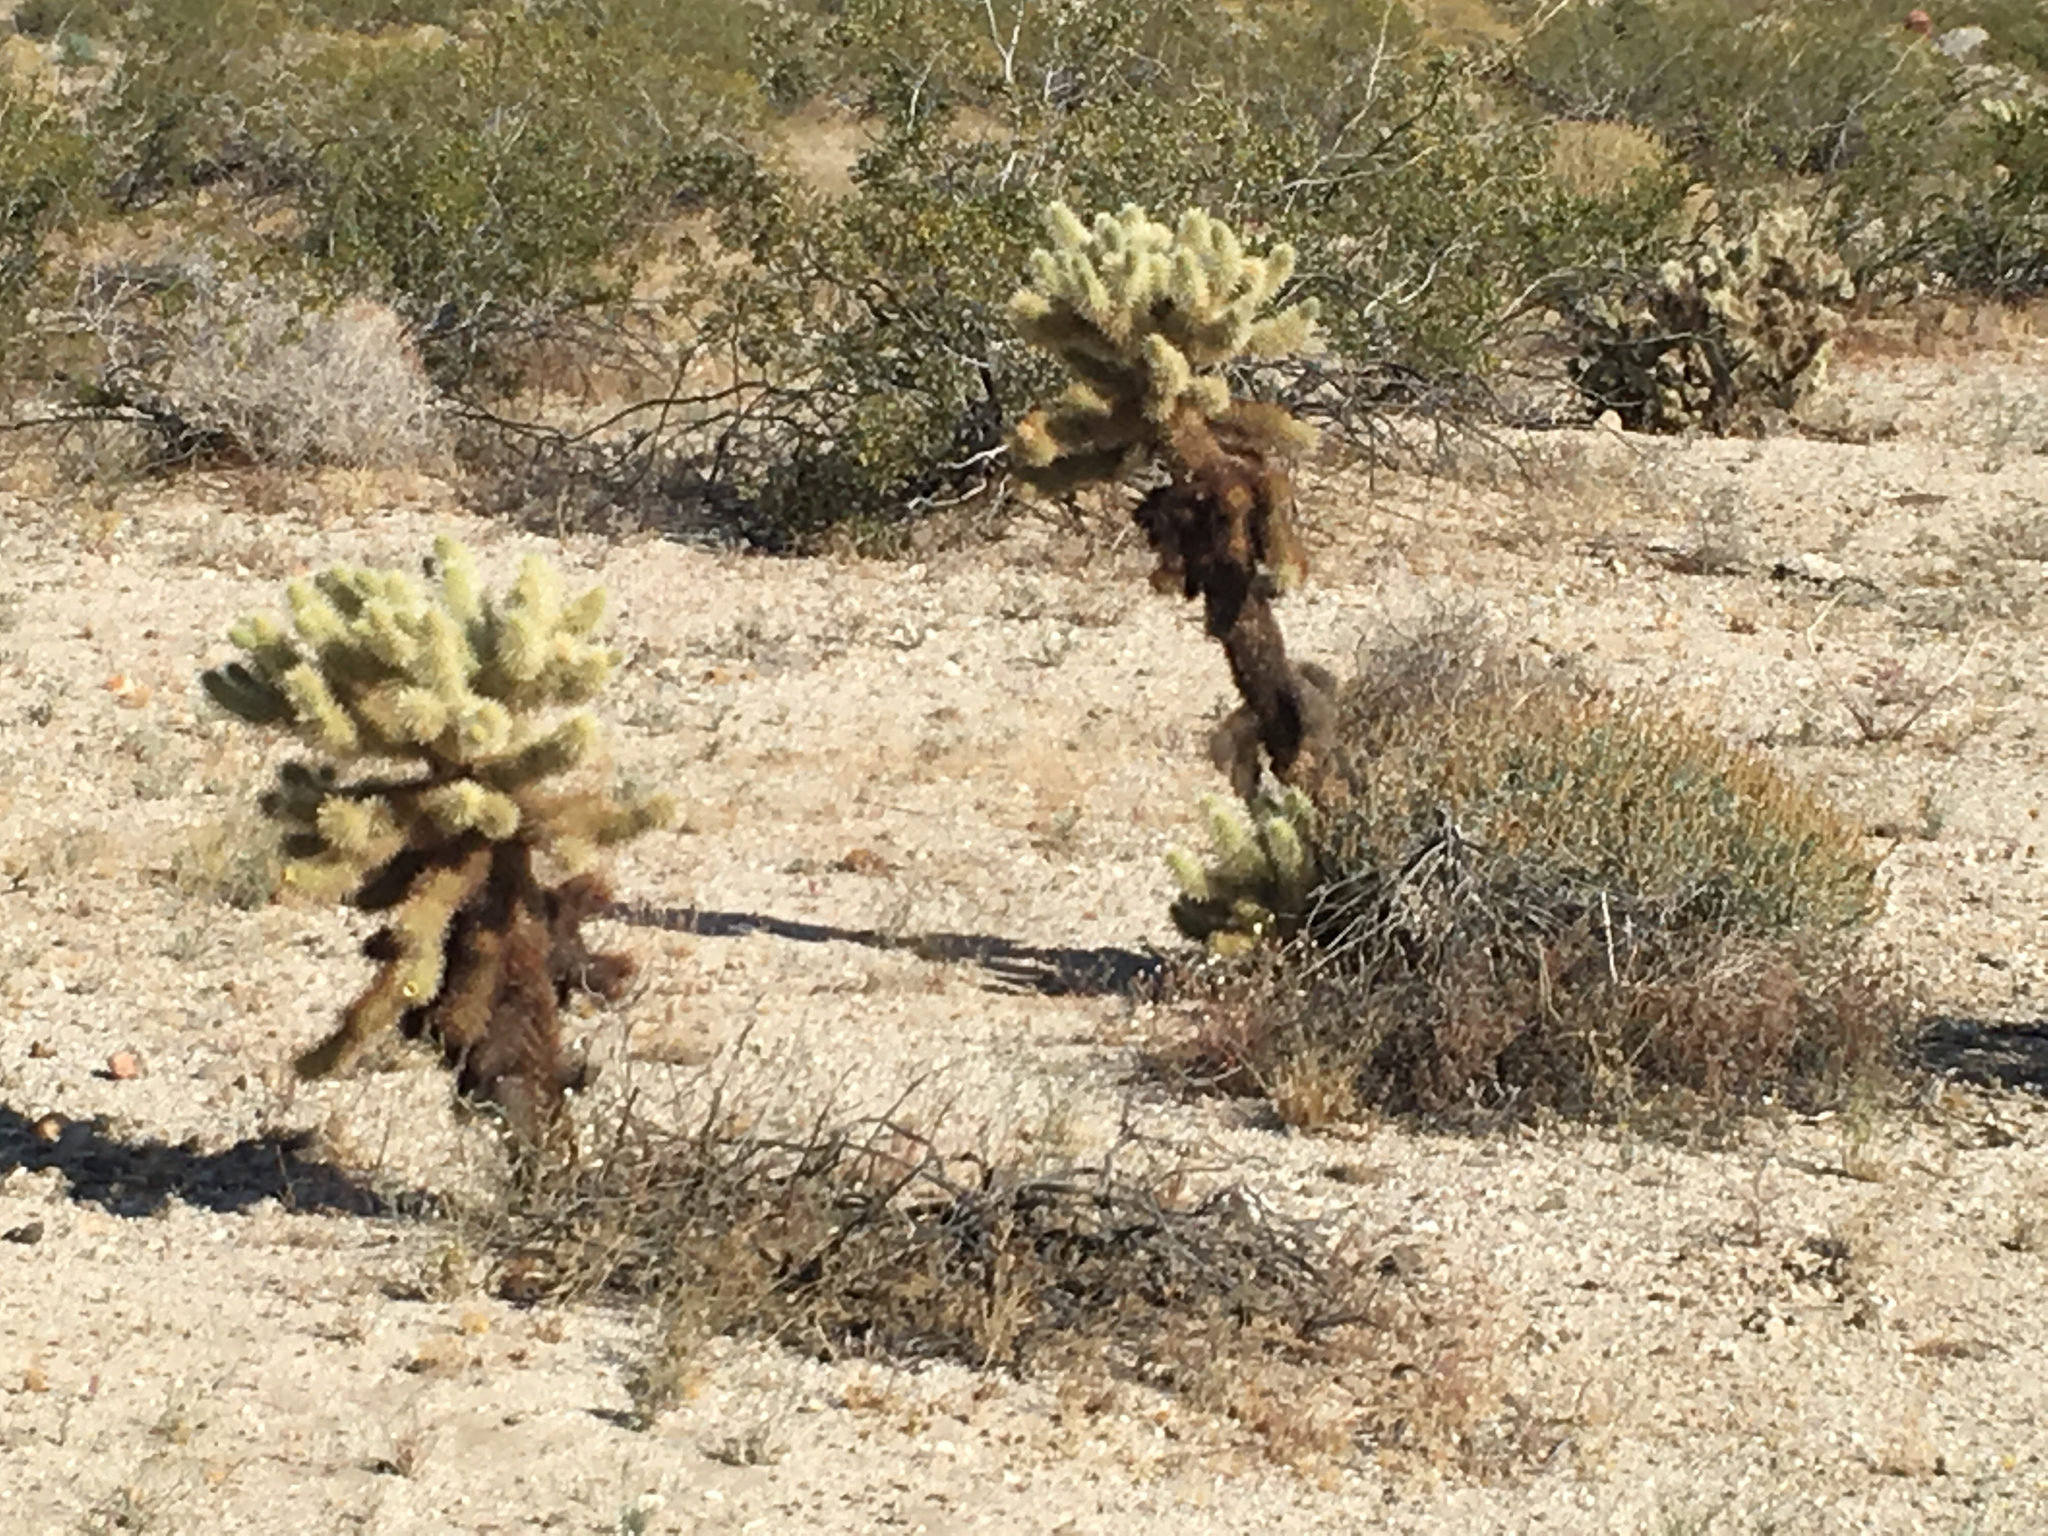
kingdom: Plantae
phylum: Tracheophyta
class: Magnoliopsida
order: Caryophyllales
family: Cactaceae
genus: Cylindropuntia
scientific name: Cylindropuntia fosbergii
